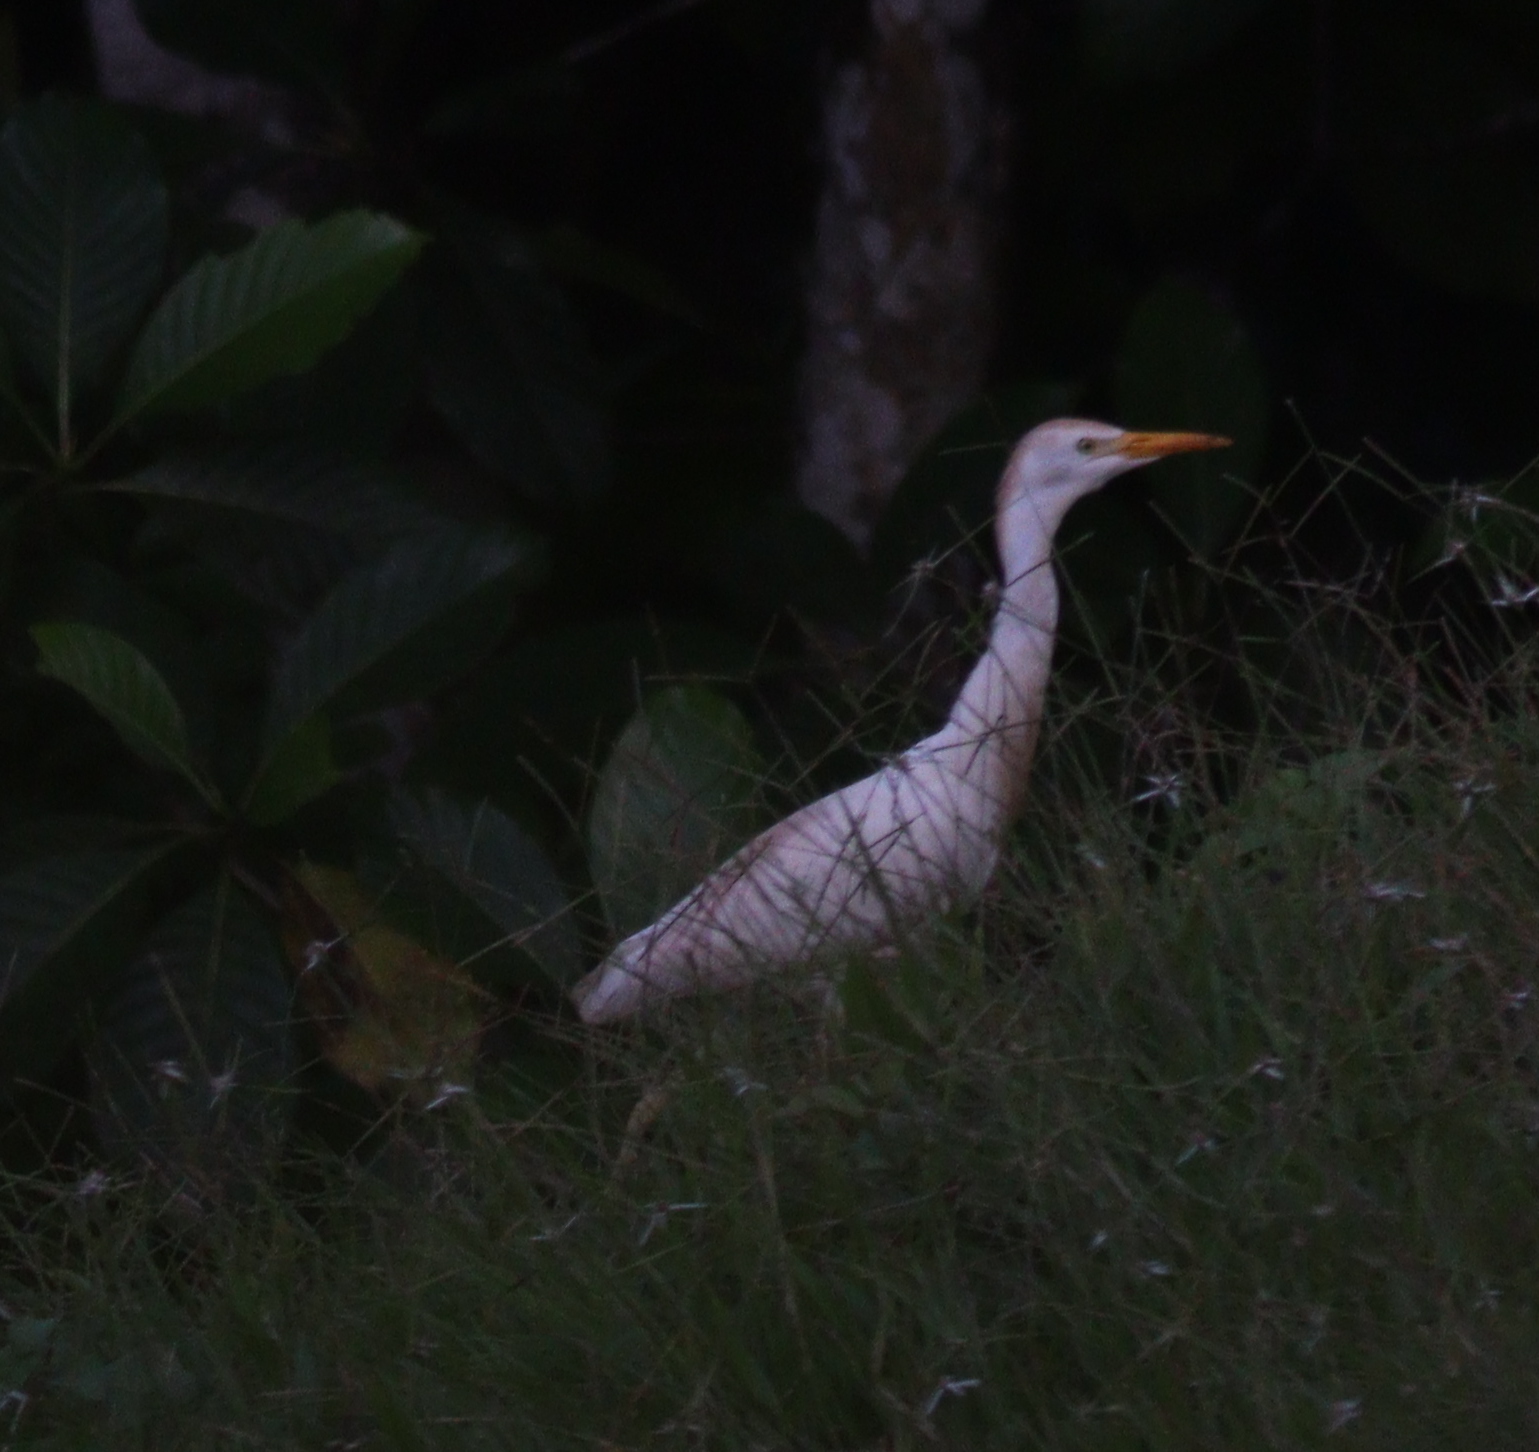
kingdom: Animalia
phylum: Chordata
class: Aves
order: Pelecaniformes
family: Ardeidae
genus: Bubulcus
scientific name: Bubulcus ibis
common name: Cattle egret
